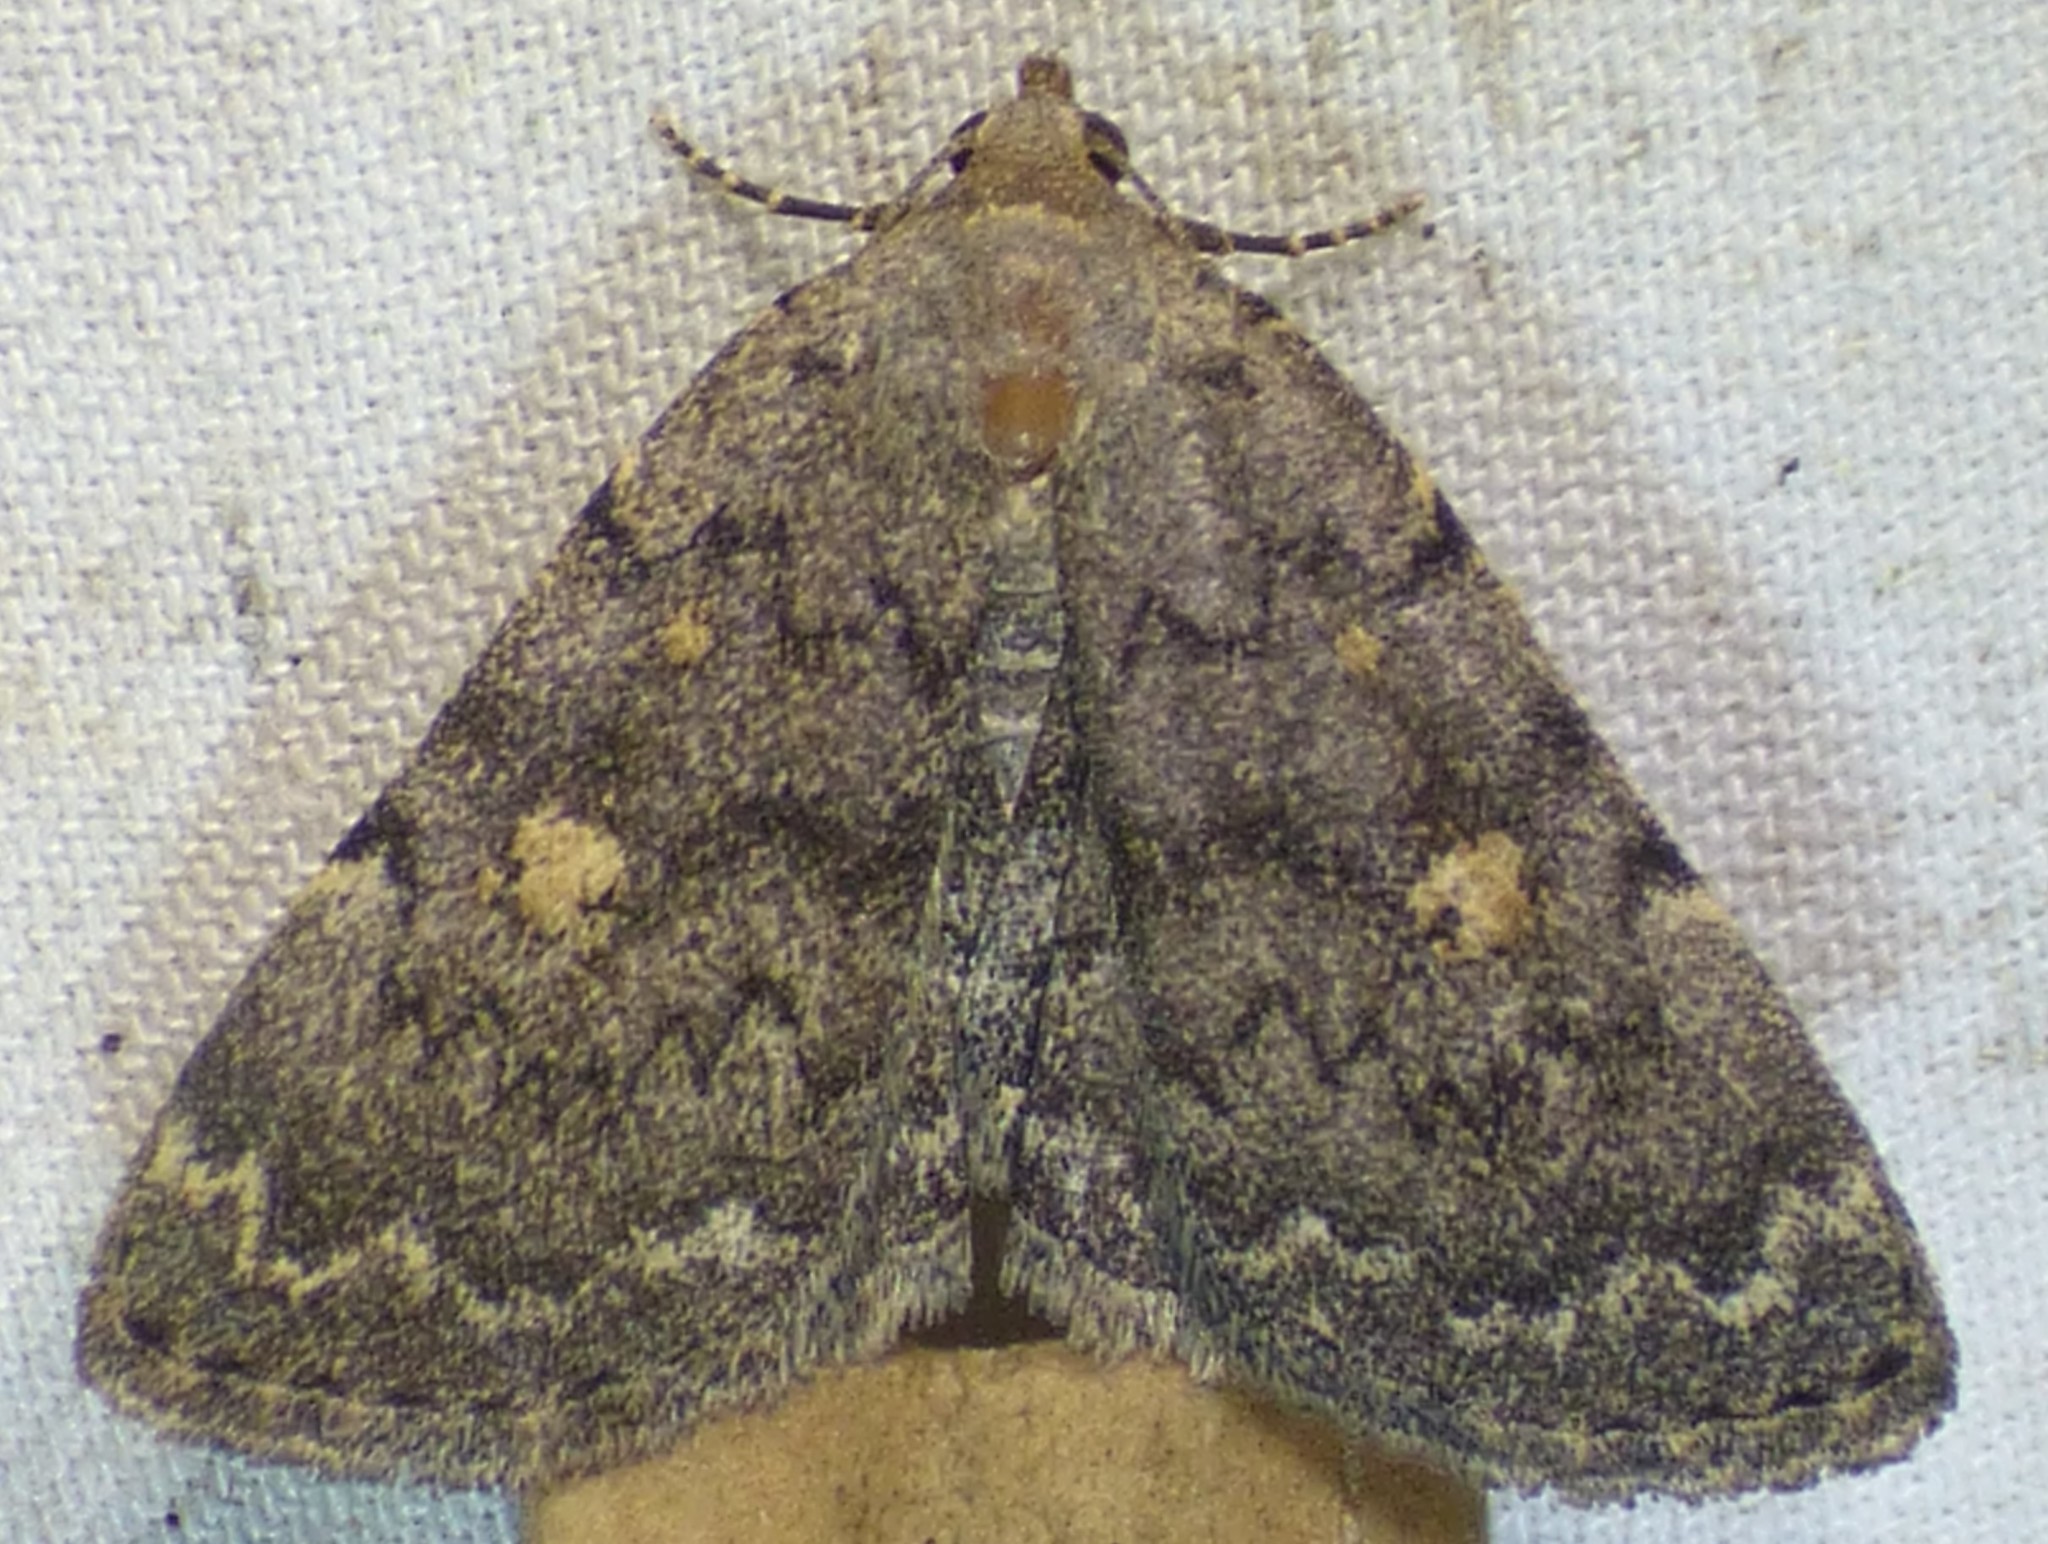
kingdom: Animalia
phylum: Arthropoda
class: Insecta
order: Lepidoptera
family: Erebidae
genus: Idia
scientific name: Idia aemula
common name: Common idia moth
